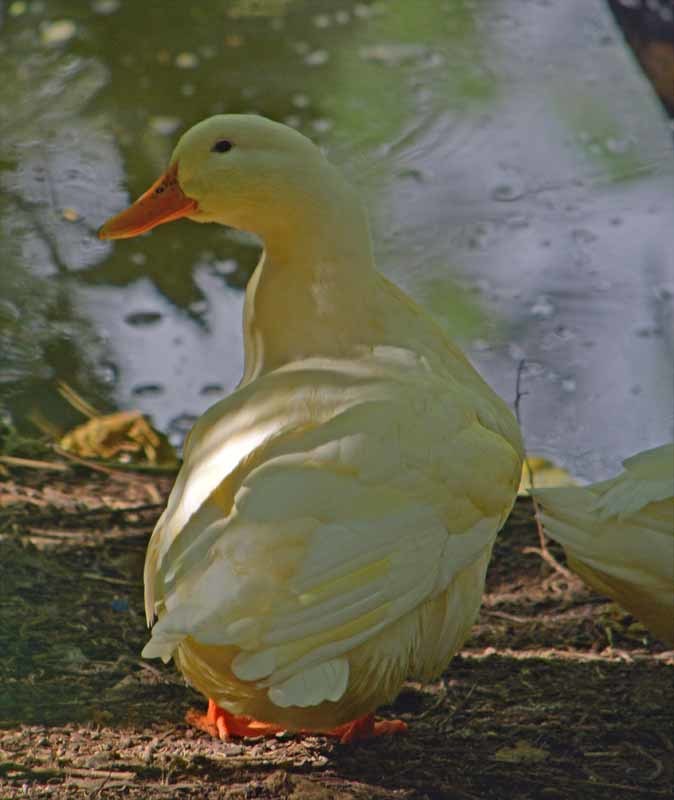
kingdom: Animalia
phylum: Chordata
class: Aves
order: Anseriformes
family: Anatidae
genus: Anas
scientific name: Anas platyrhynchos
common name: Mallard
